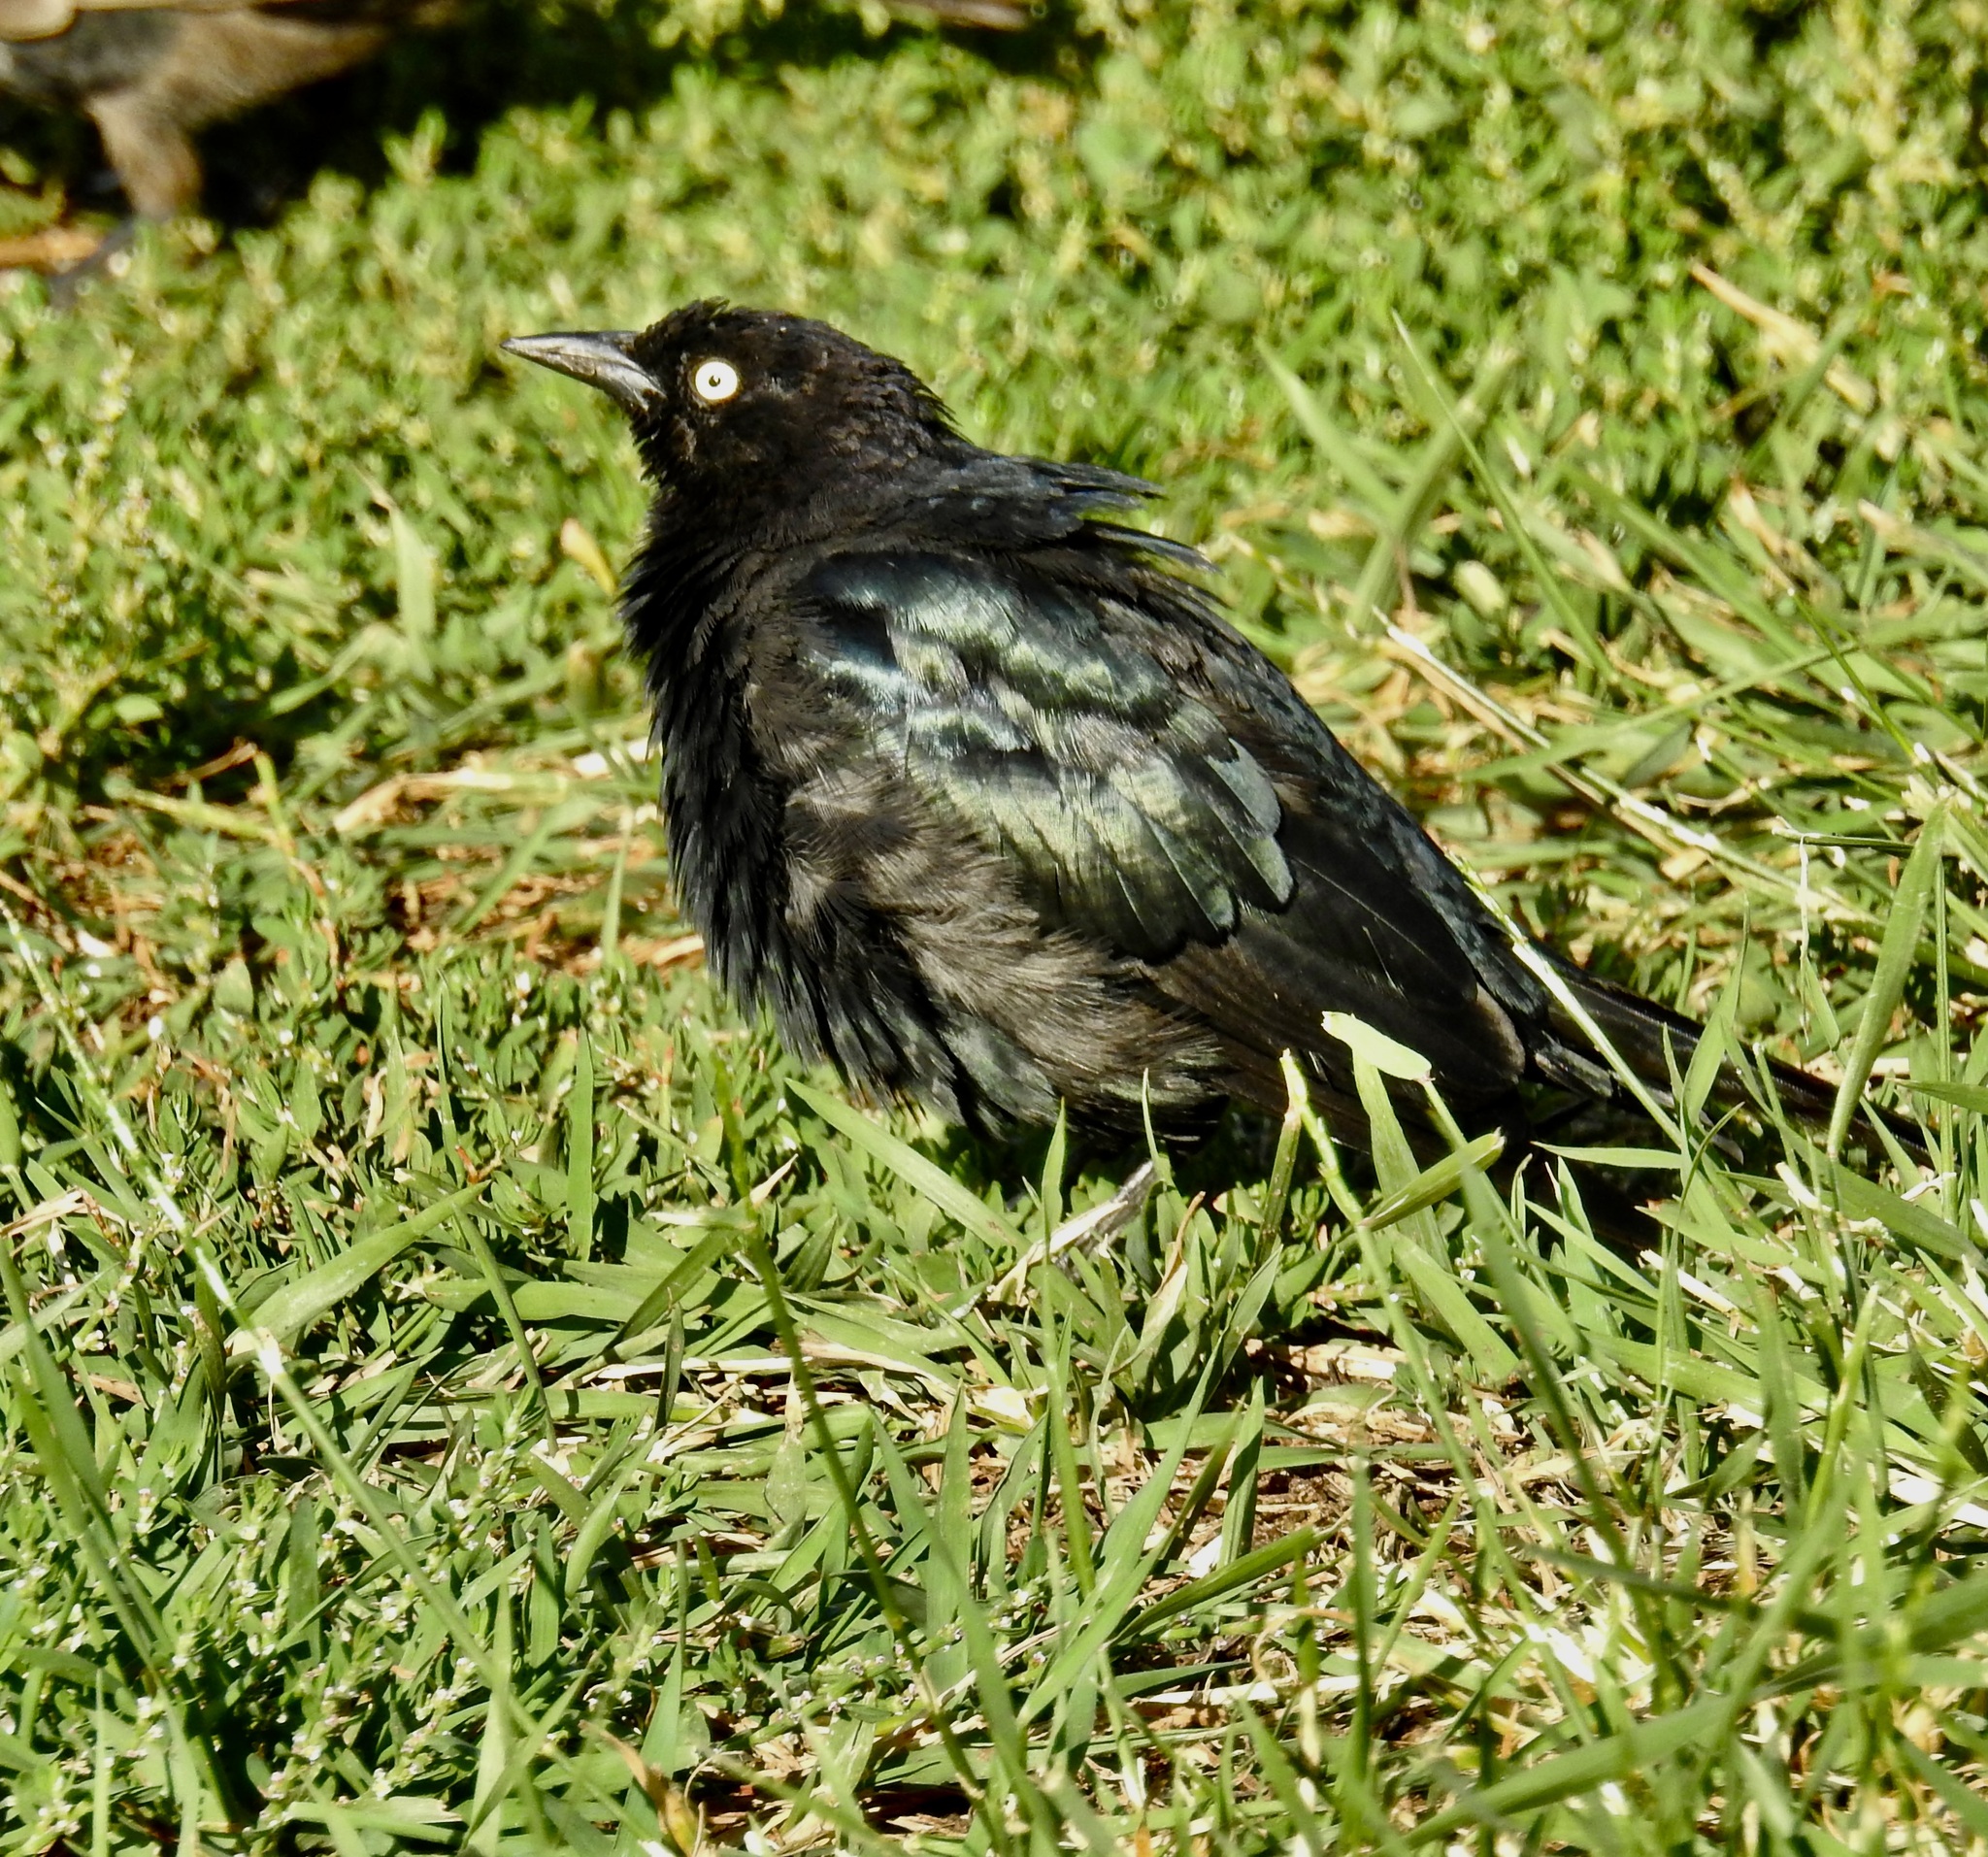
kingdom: Animalia
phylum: Chordata
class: Aves
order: Passeriformes
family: Icteridae
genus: Euphagus
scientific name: Euphagus cyanocephalus
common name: Brewer's blackbird
